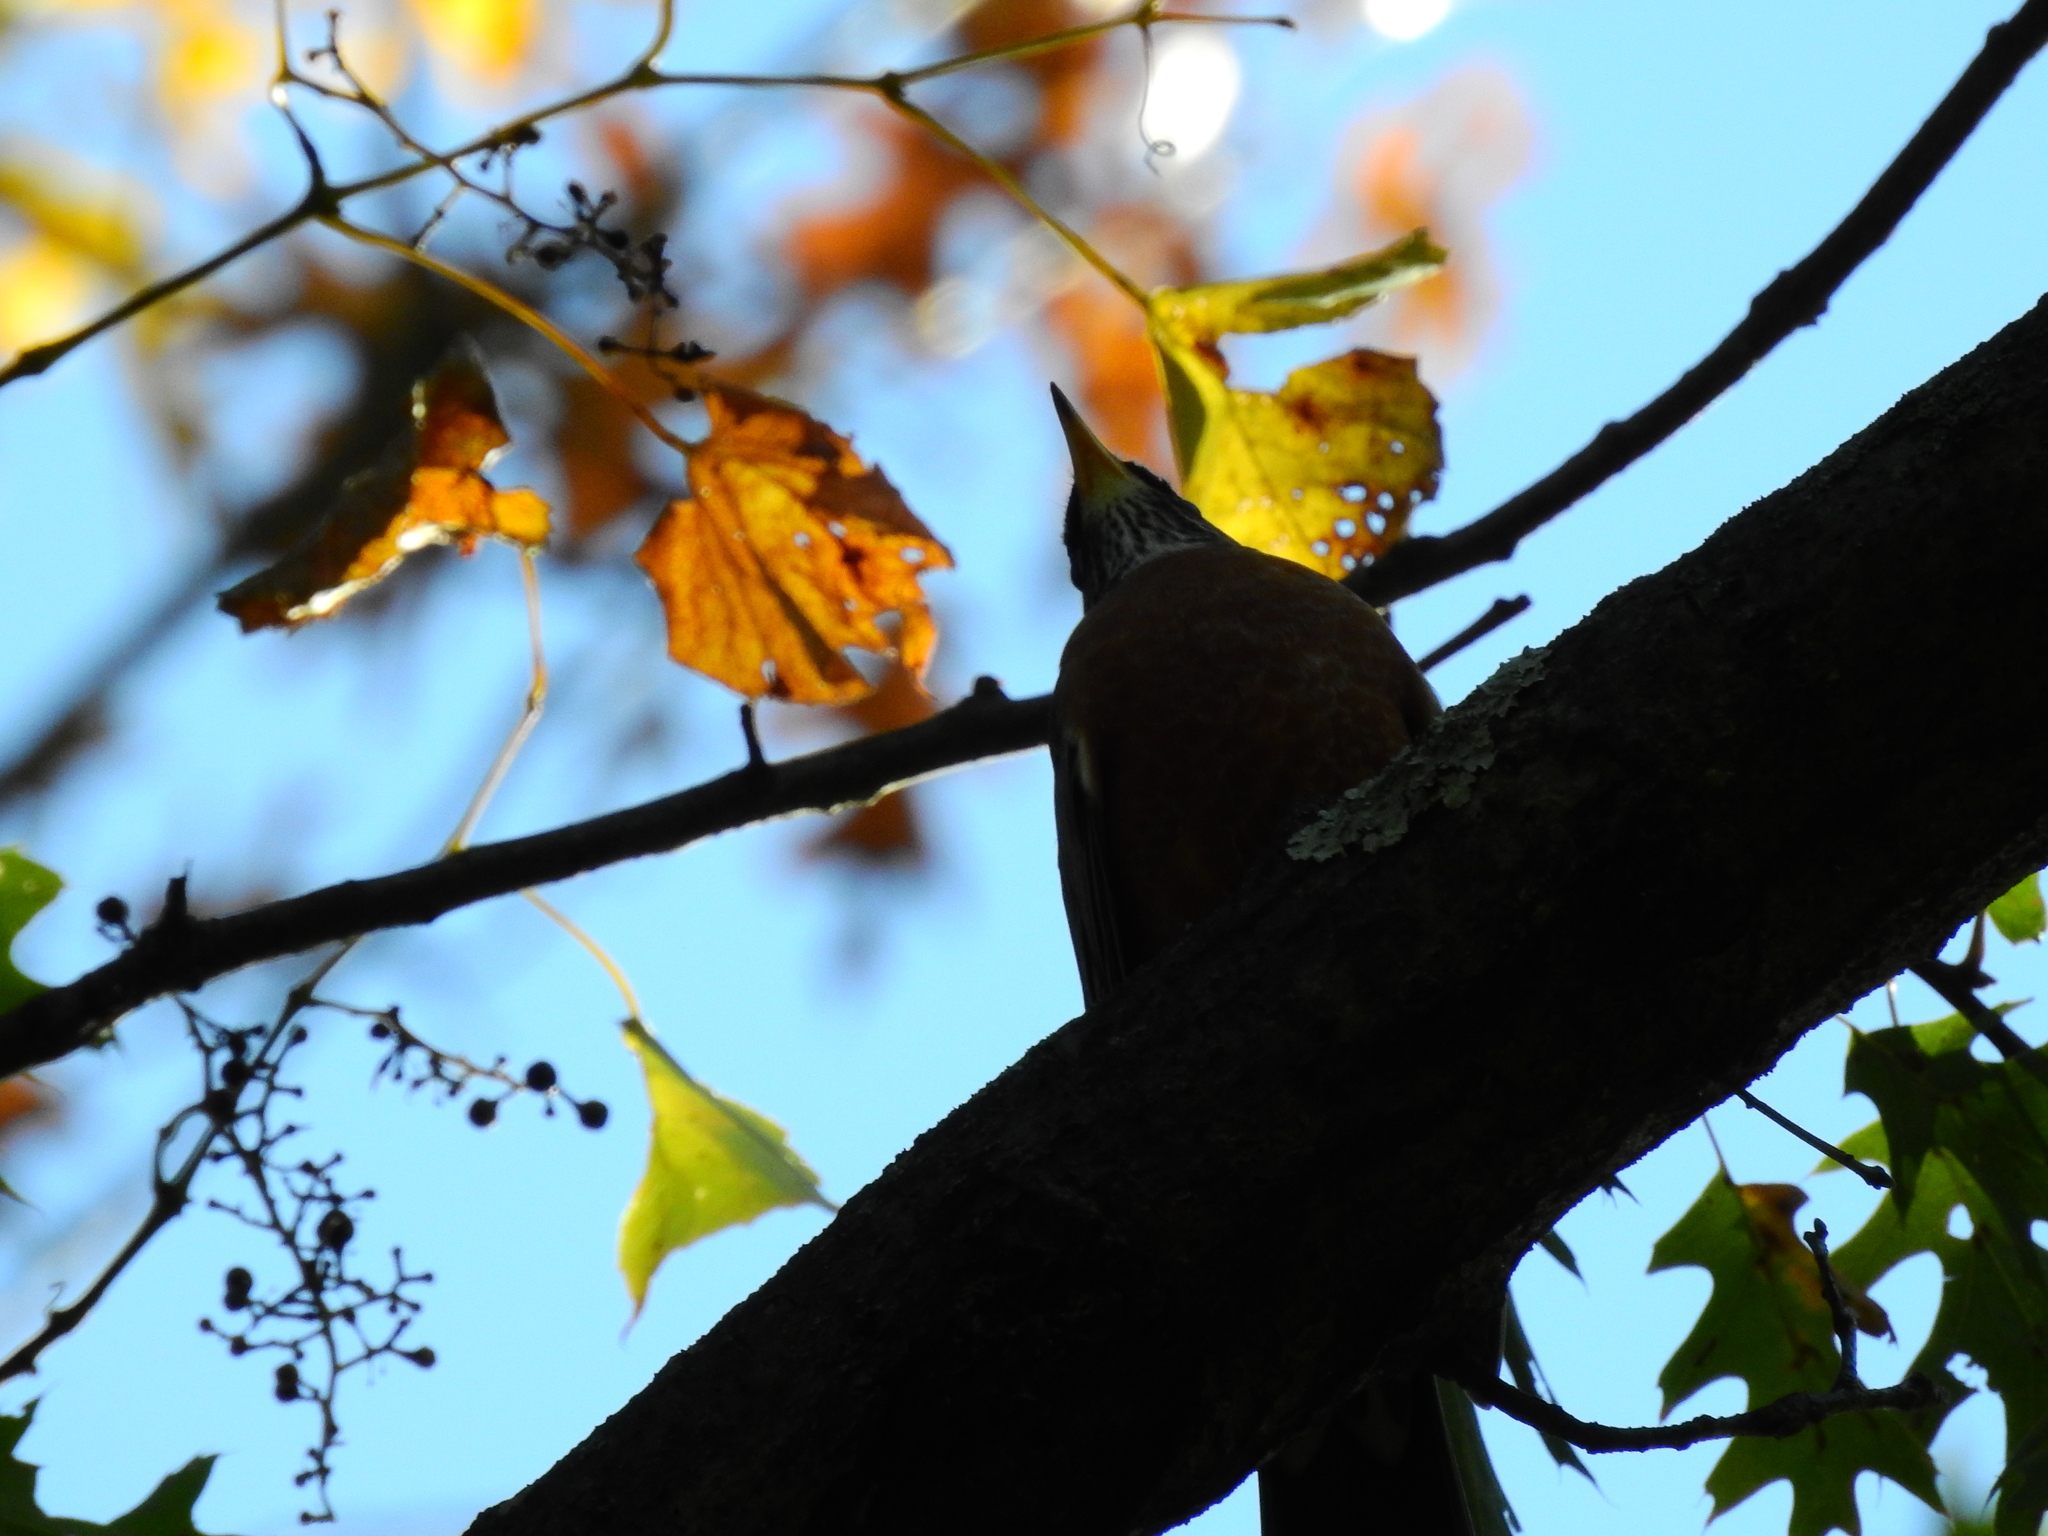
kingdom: Animalia
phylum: Chordata
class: Aves
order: Passeriformes
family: Turdidae
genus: Turdus
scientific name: Turdus migratorius
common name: American robin
